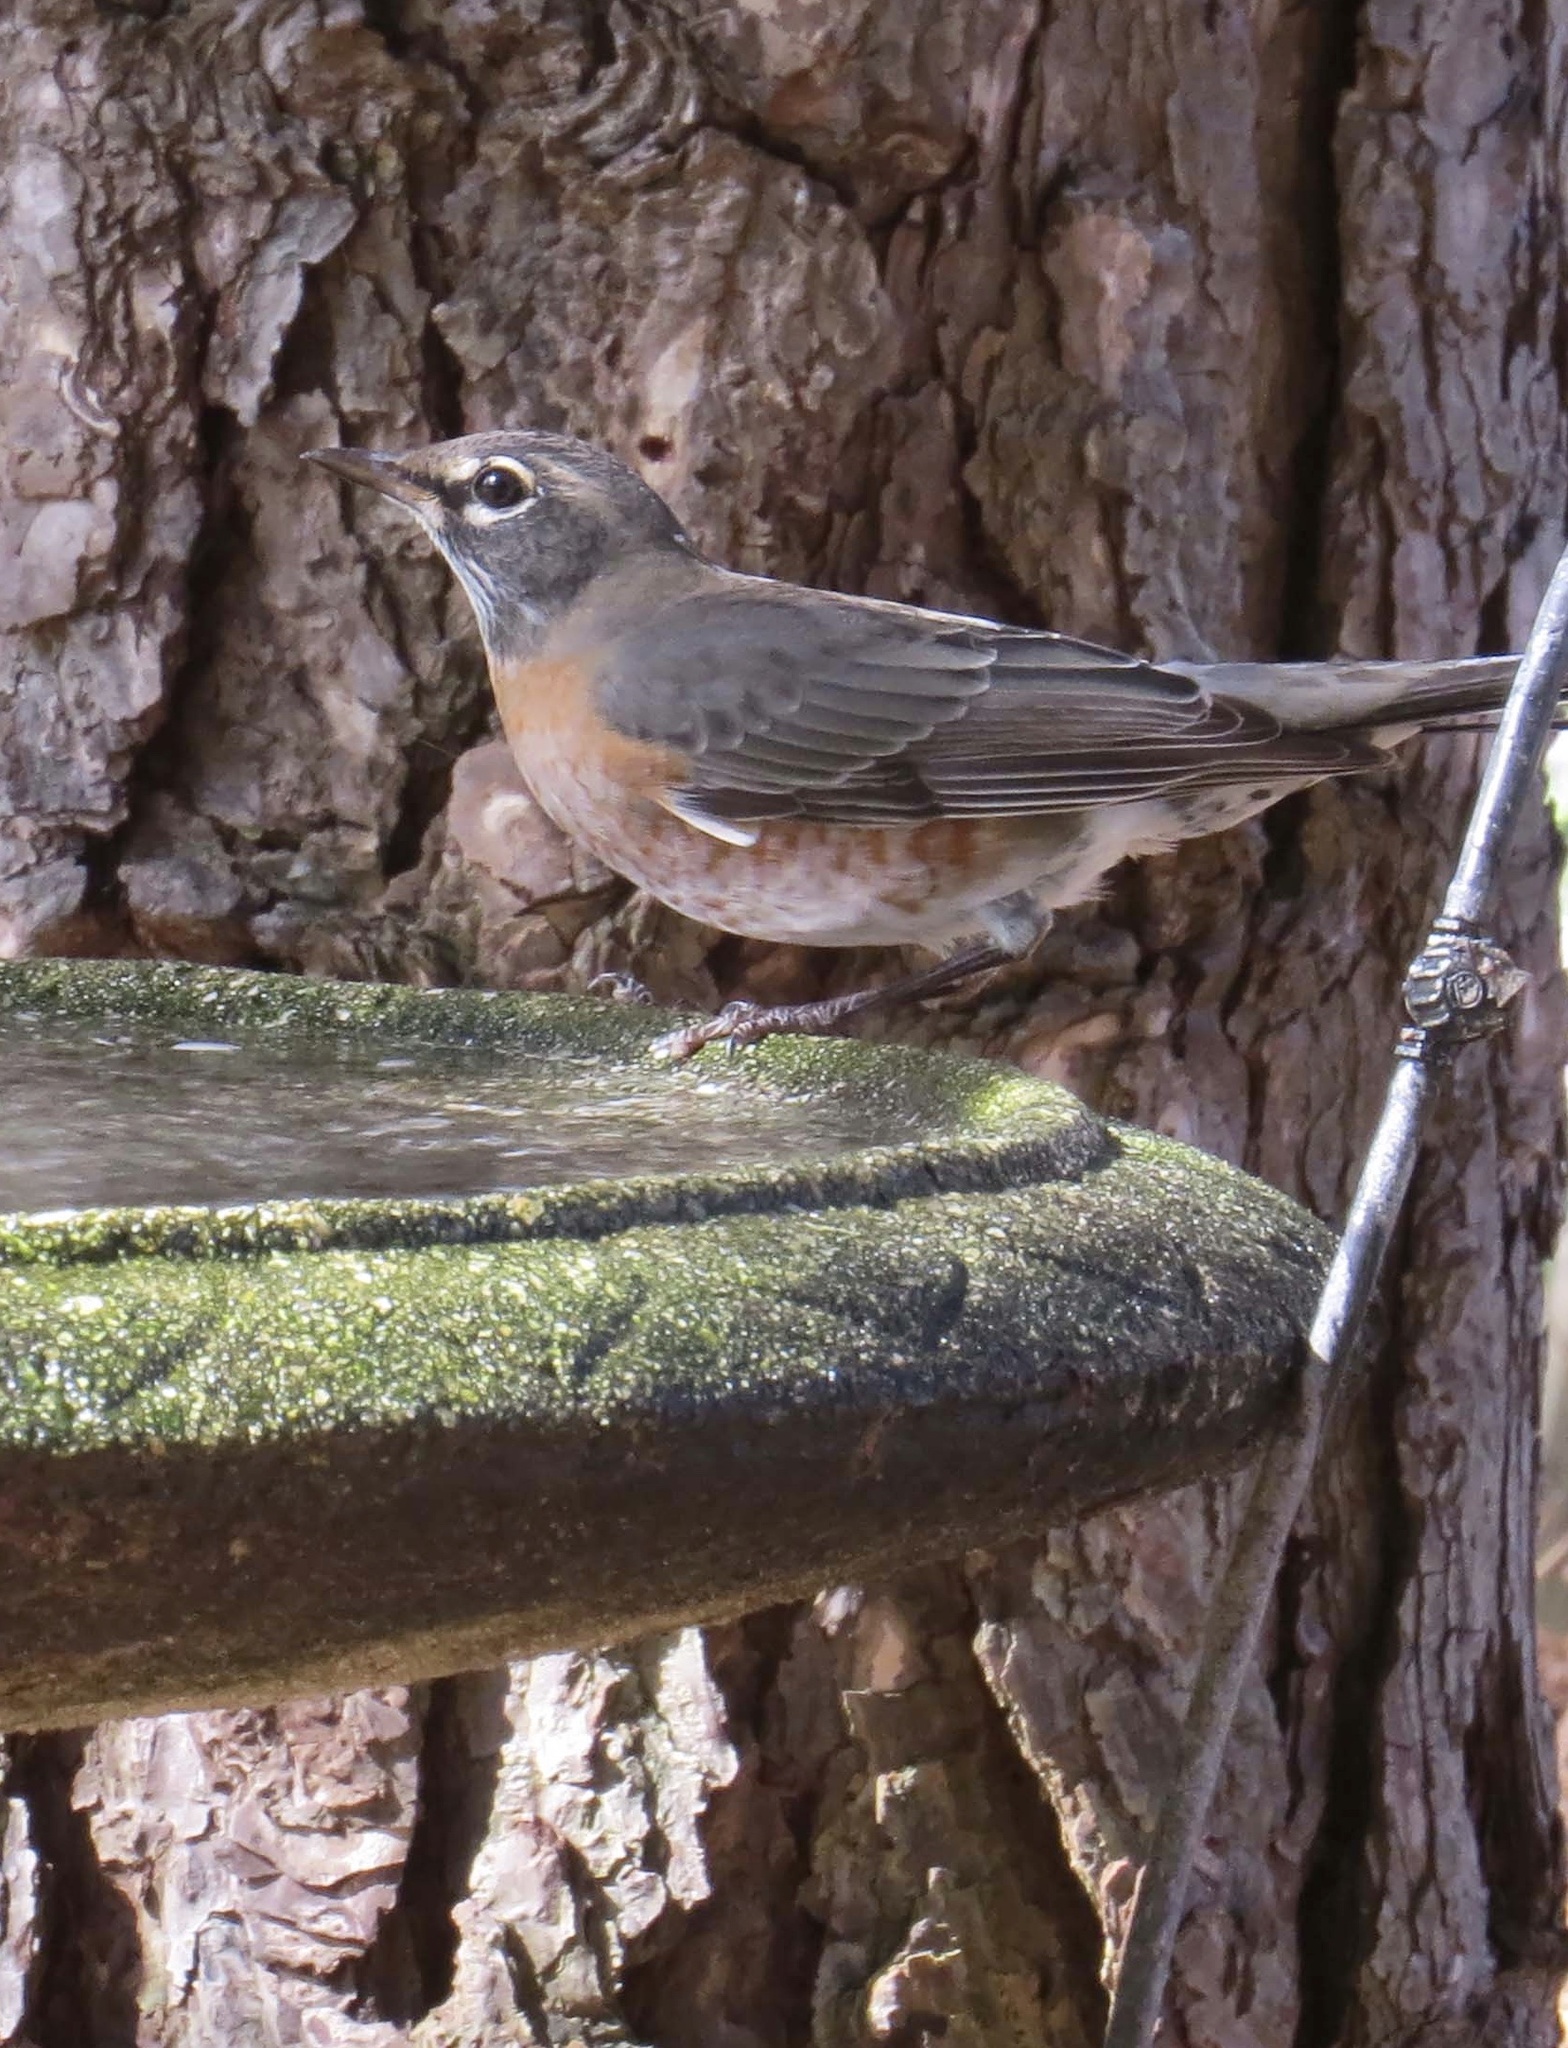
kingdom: Animalia
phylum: Chordata
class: Aves
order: Passeriformes
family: Turdidae
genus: Turdus
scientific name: Turdus migratorius
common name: American robin
